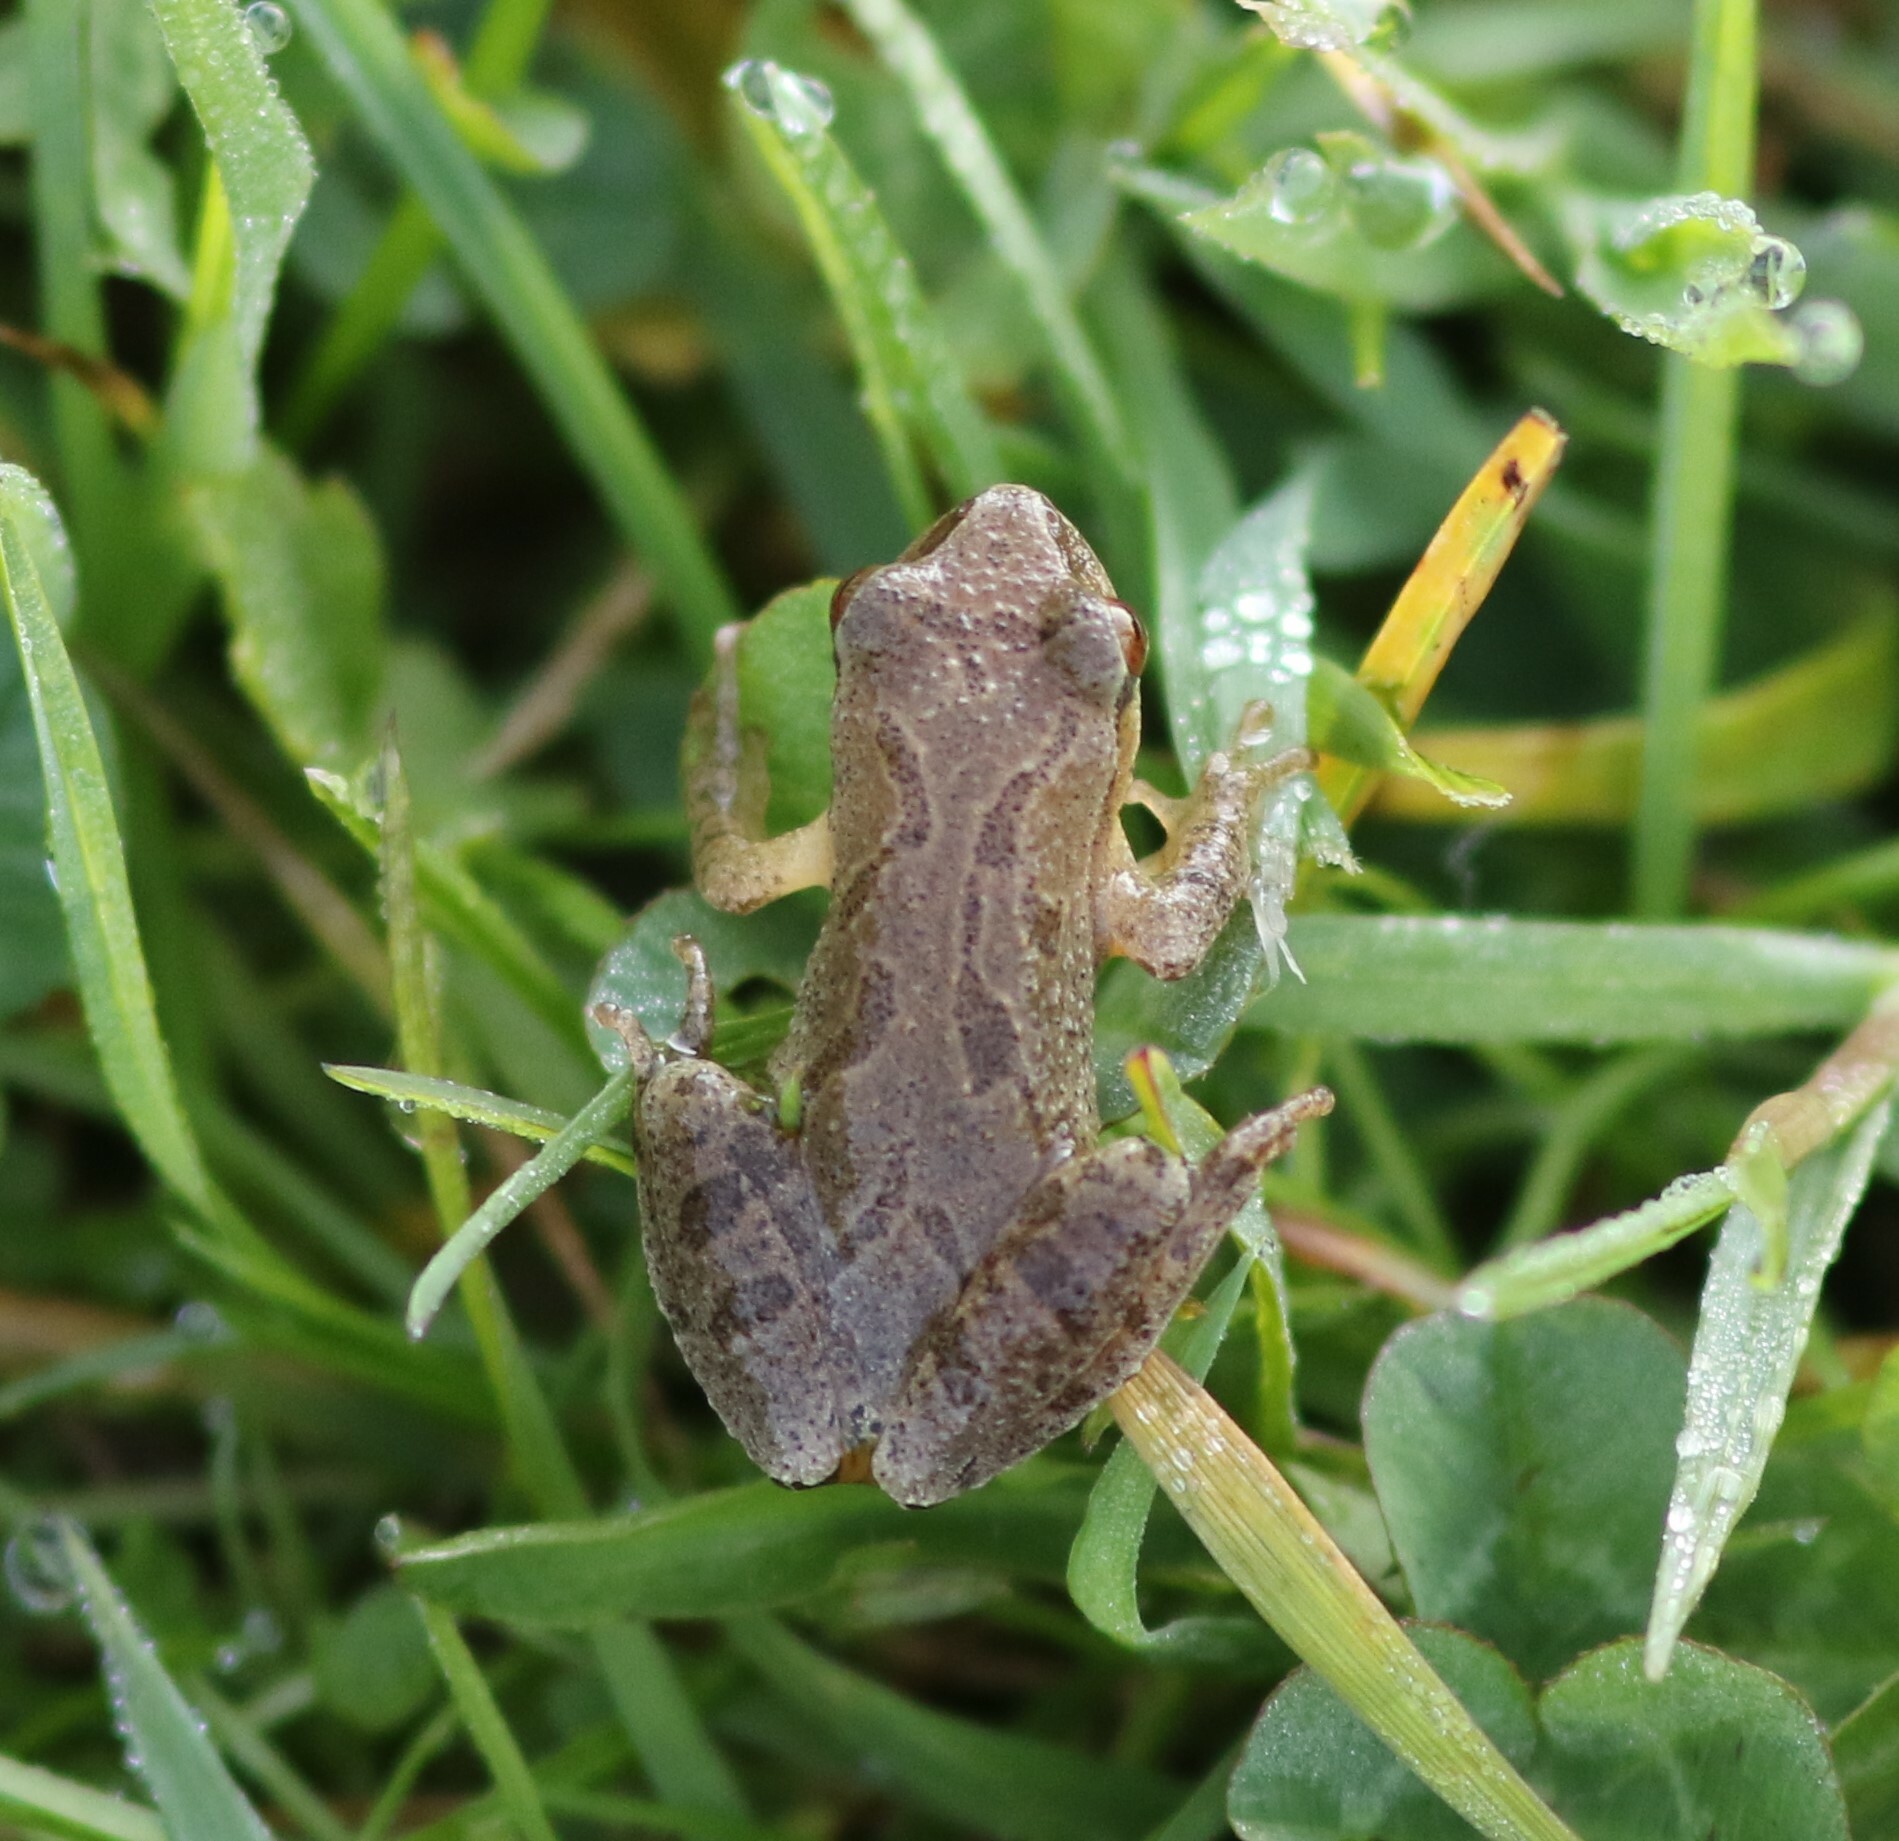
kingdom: Animalia
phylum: Chordata
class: Amphibia
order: Anura
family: Hylidae
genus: Pseudacris
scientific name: Pseudacris crucifer
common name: Spring peeper
